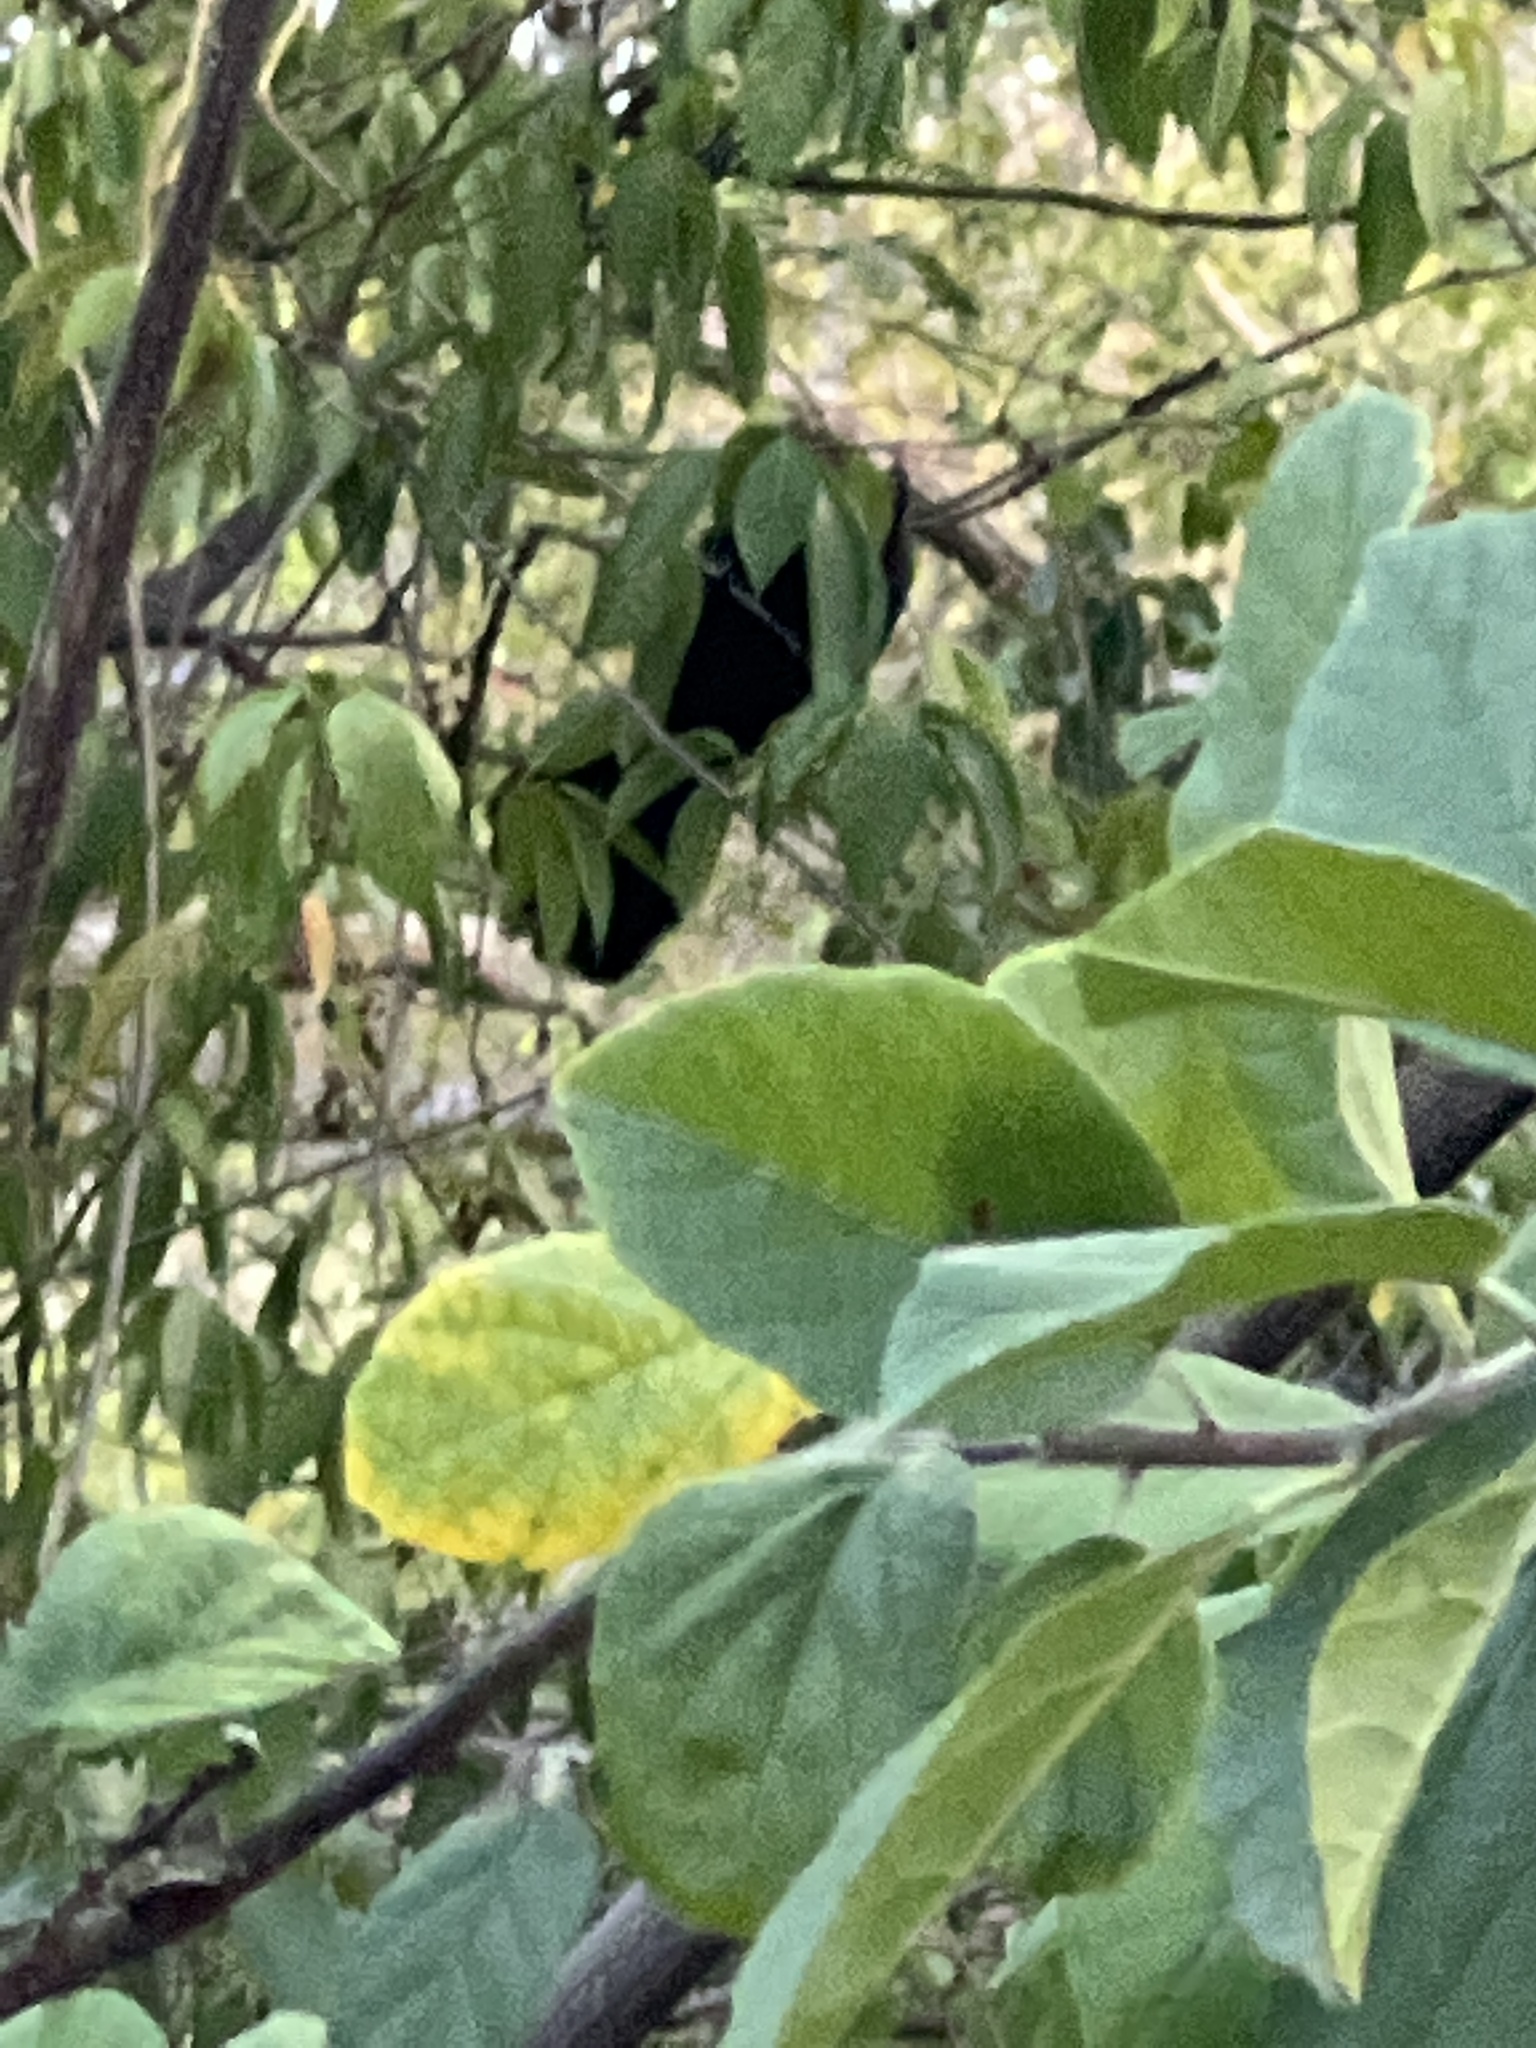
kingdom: Animalia
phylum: Chordata
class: Aves
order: Cuculiformes
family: Cuculidae
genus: Crotophaga
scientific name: Crotophaga ani
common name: Smooth-billed ani
